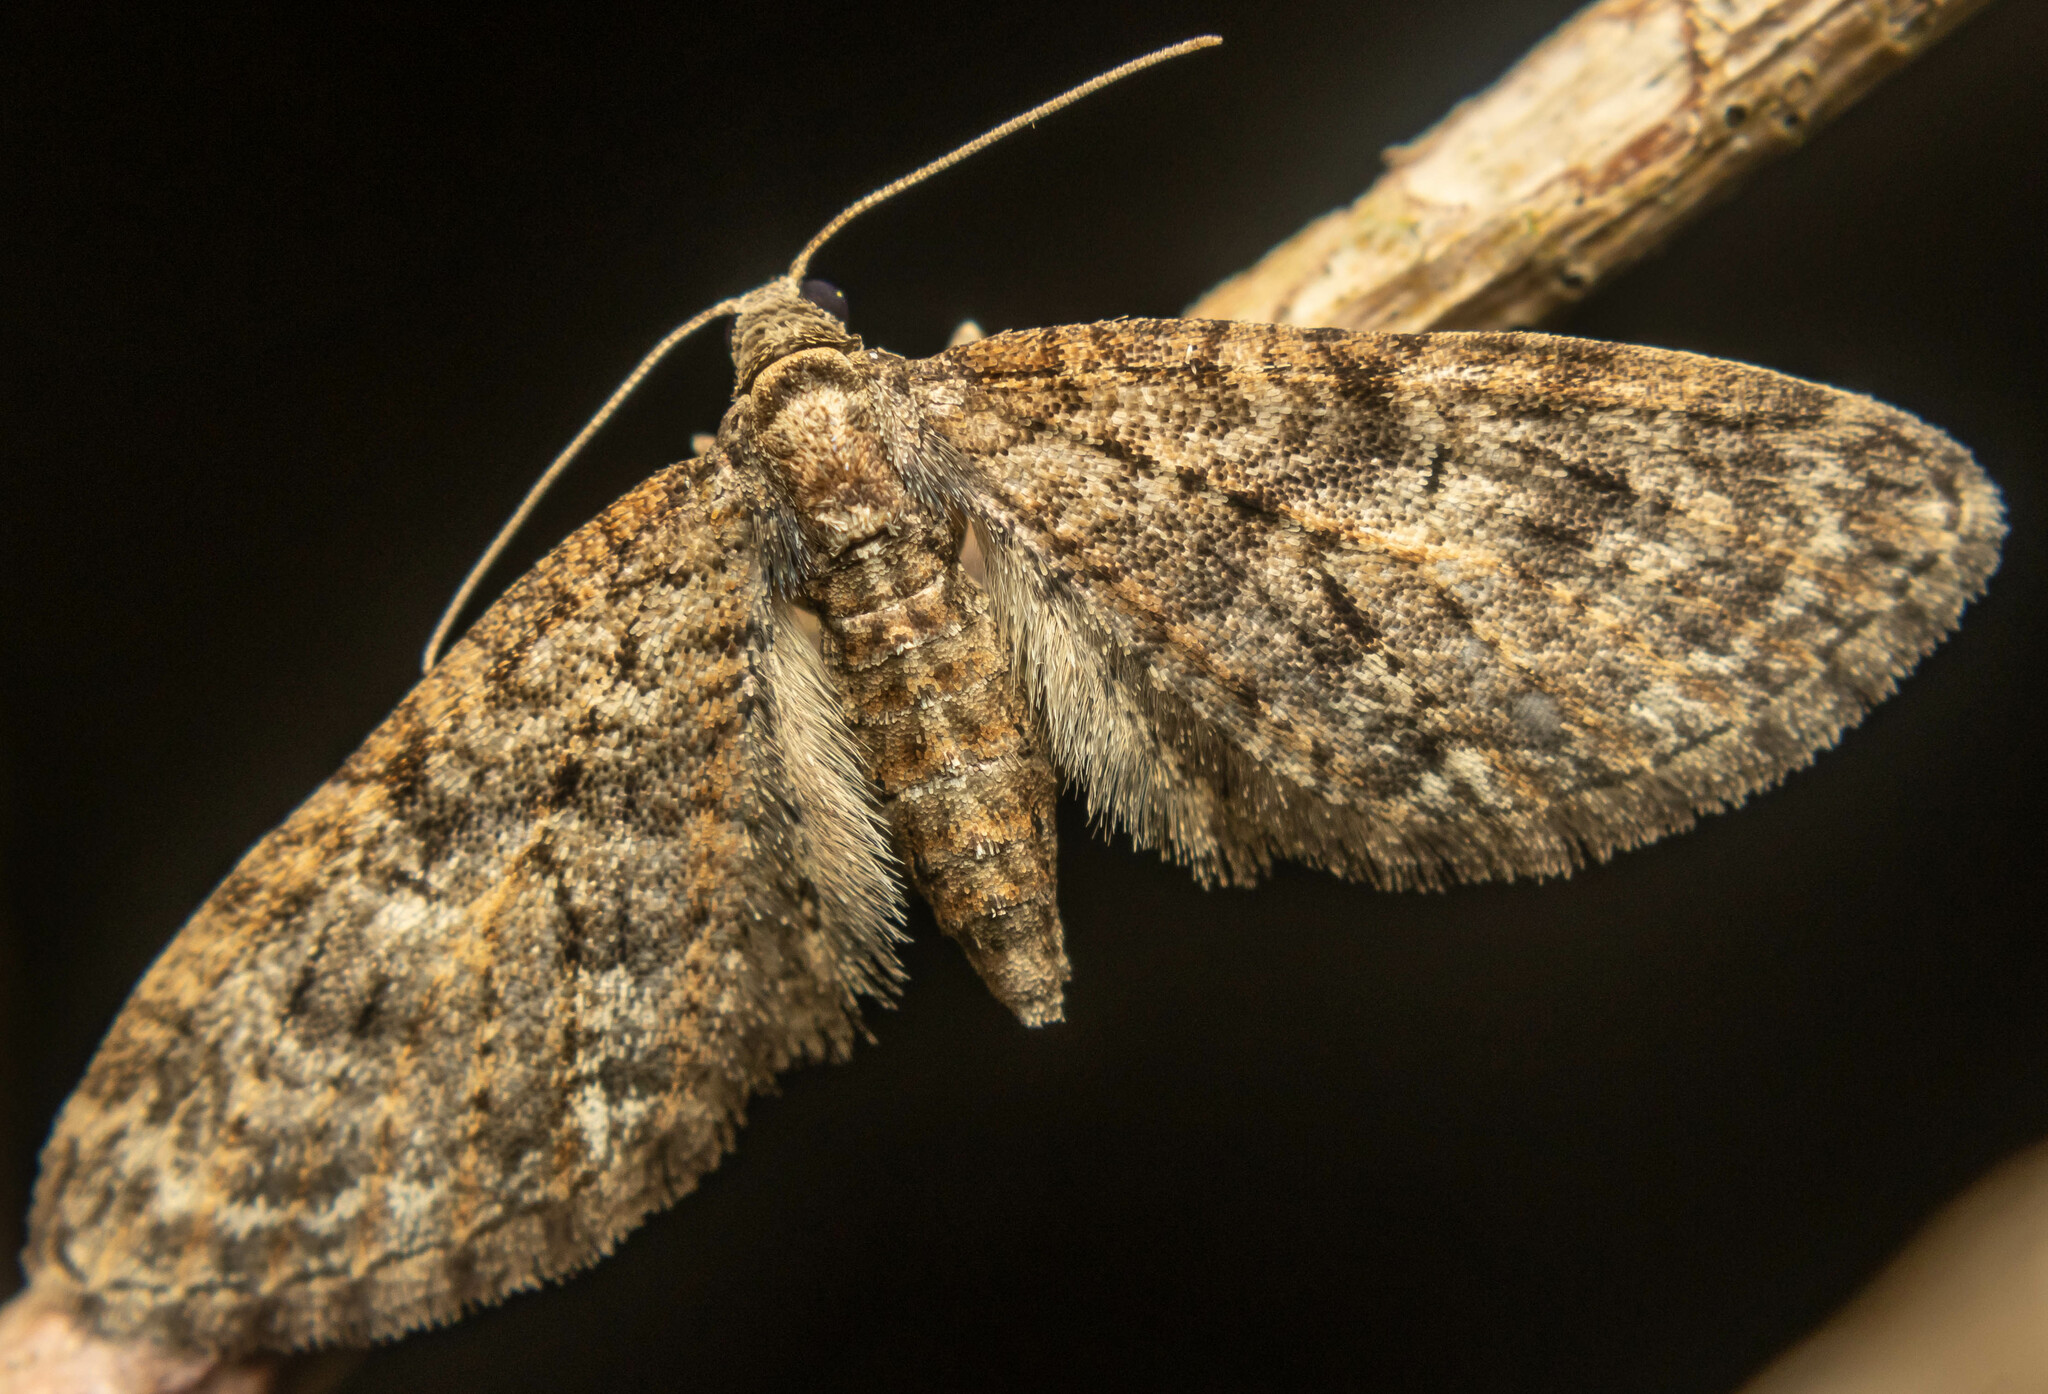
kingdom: Animalia
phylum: Arthropoda
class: Insecta
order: Lepidoptera
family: Geometridae
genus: Eupithecia
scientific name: Eupithecia abbreviata
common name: Brindled pug
